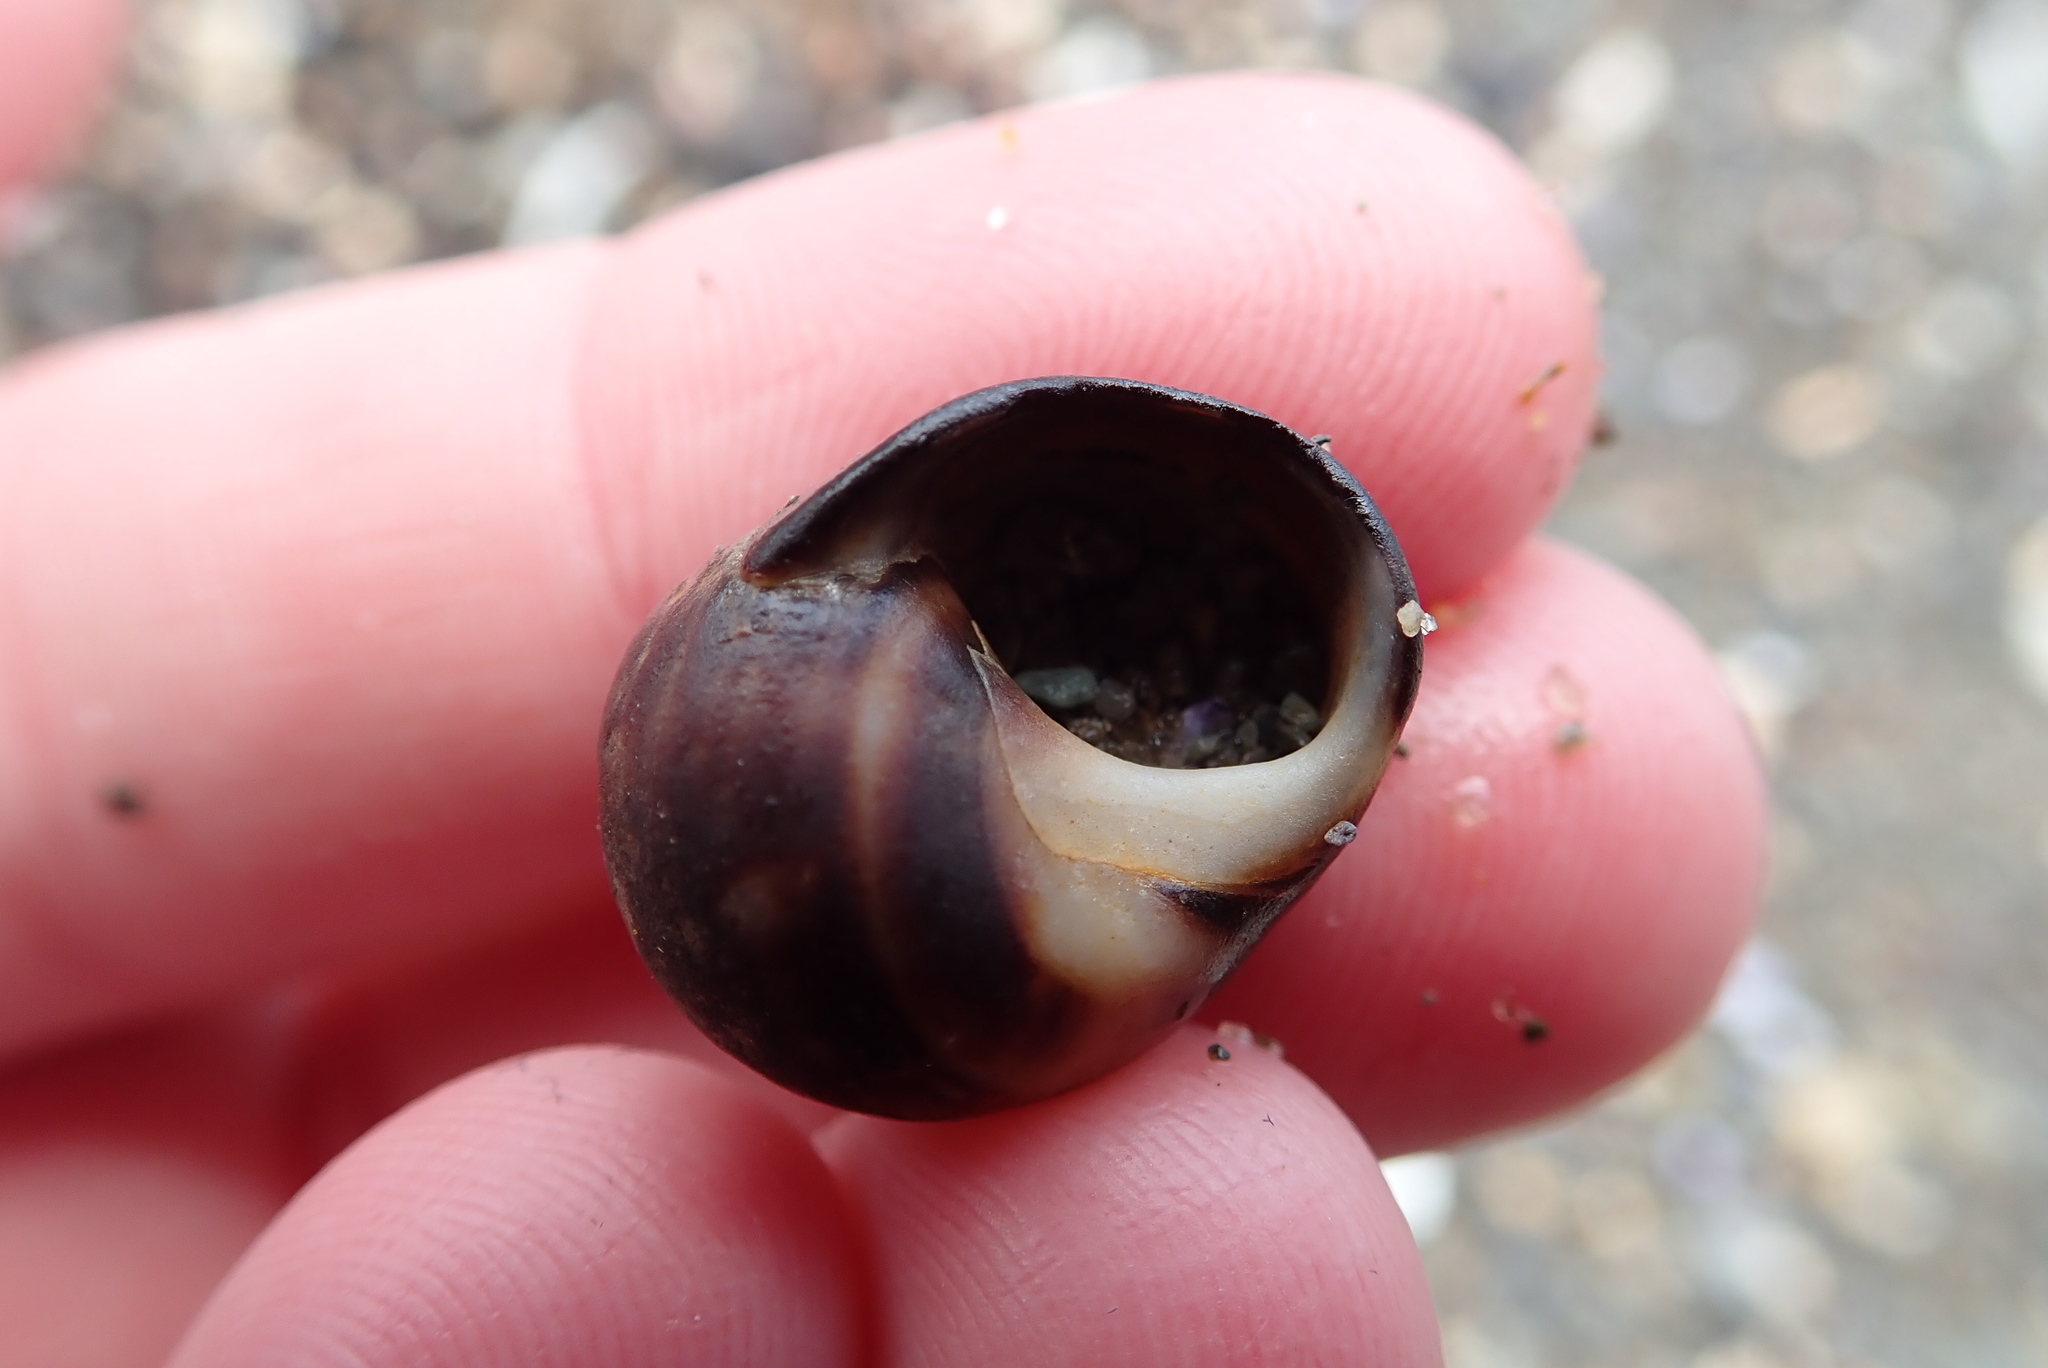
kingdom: Animalia
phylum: Mollusca
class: Gastropoda
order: Littorinimorpha
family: Littorinidae
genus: Littorina
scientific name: Littorina littorea
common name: Common periwinkle
